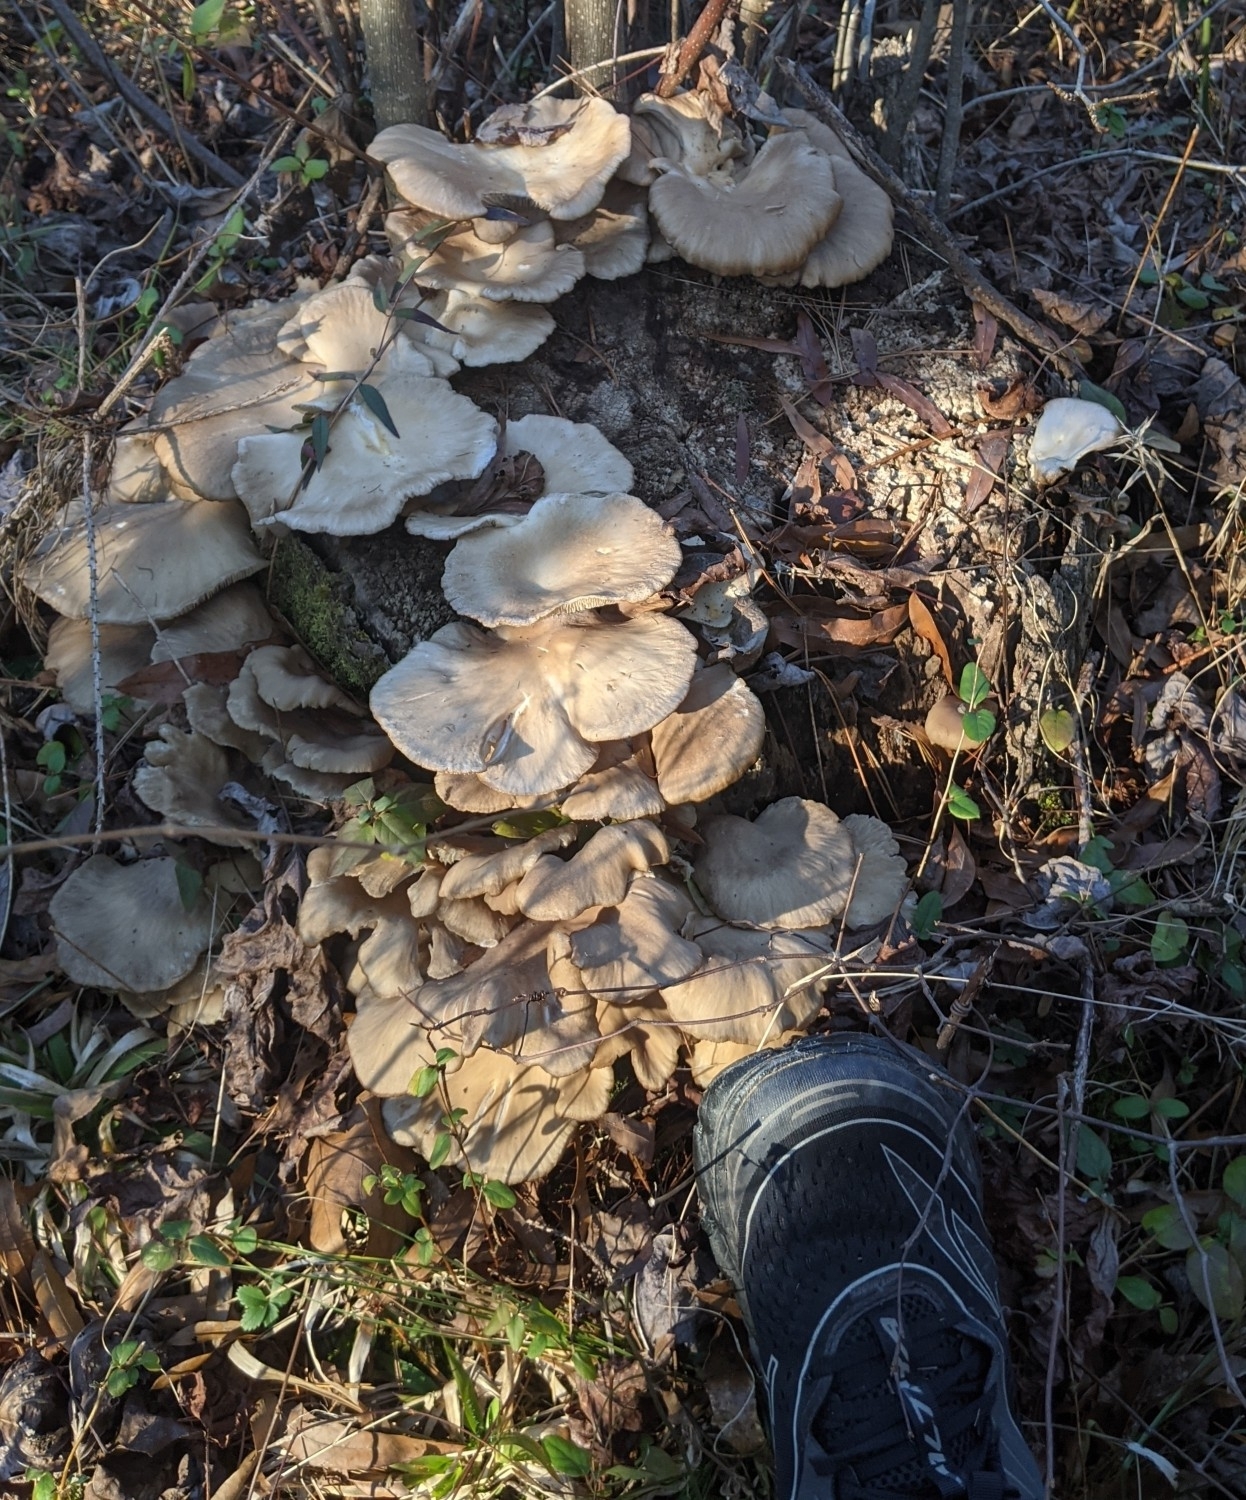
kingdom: Fungi
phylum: Basidiomycota
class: Agaricomycetes
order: Agaricales
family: Pleurotaceae
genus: Pleurotus
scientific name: Pleurotus ostreatus
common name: Oyster mushroom
